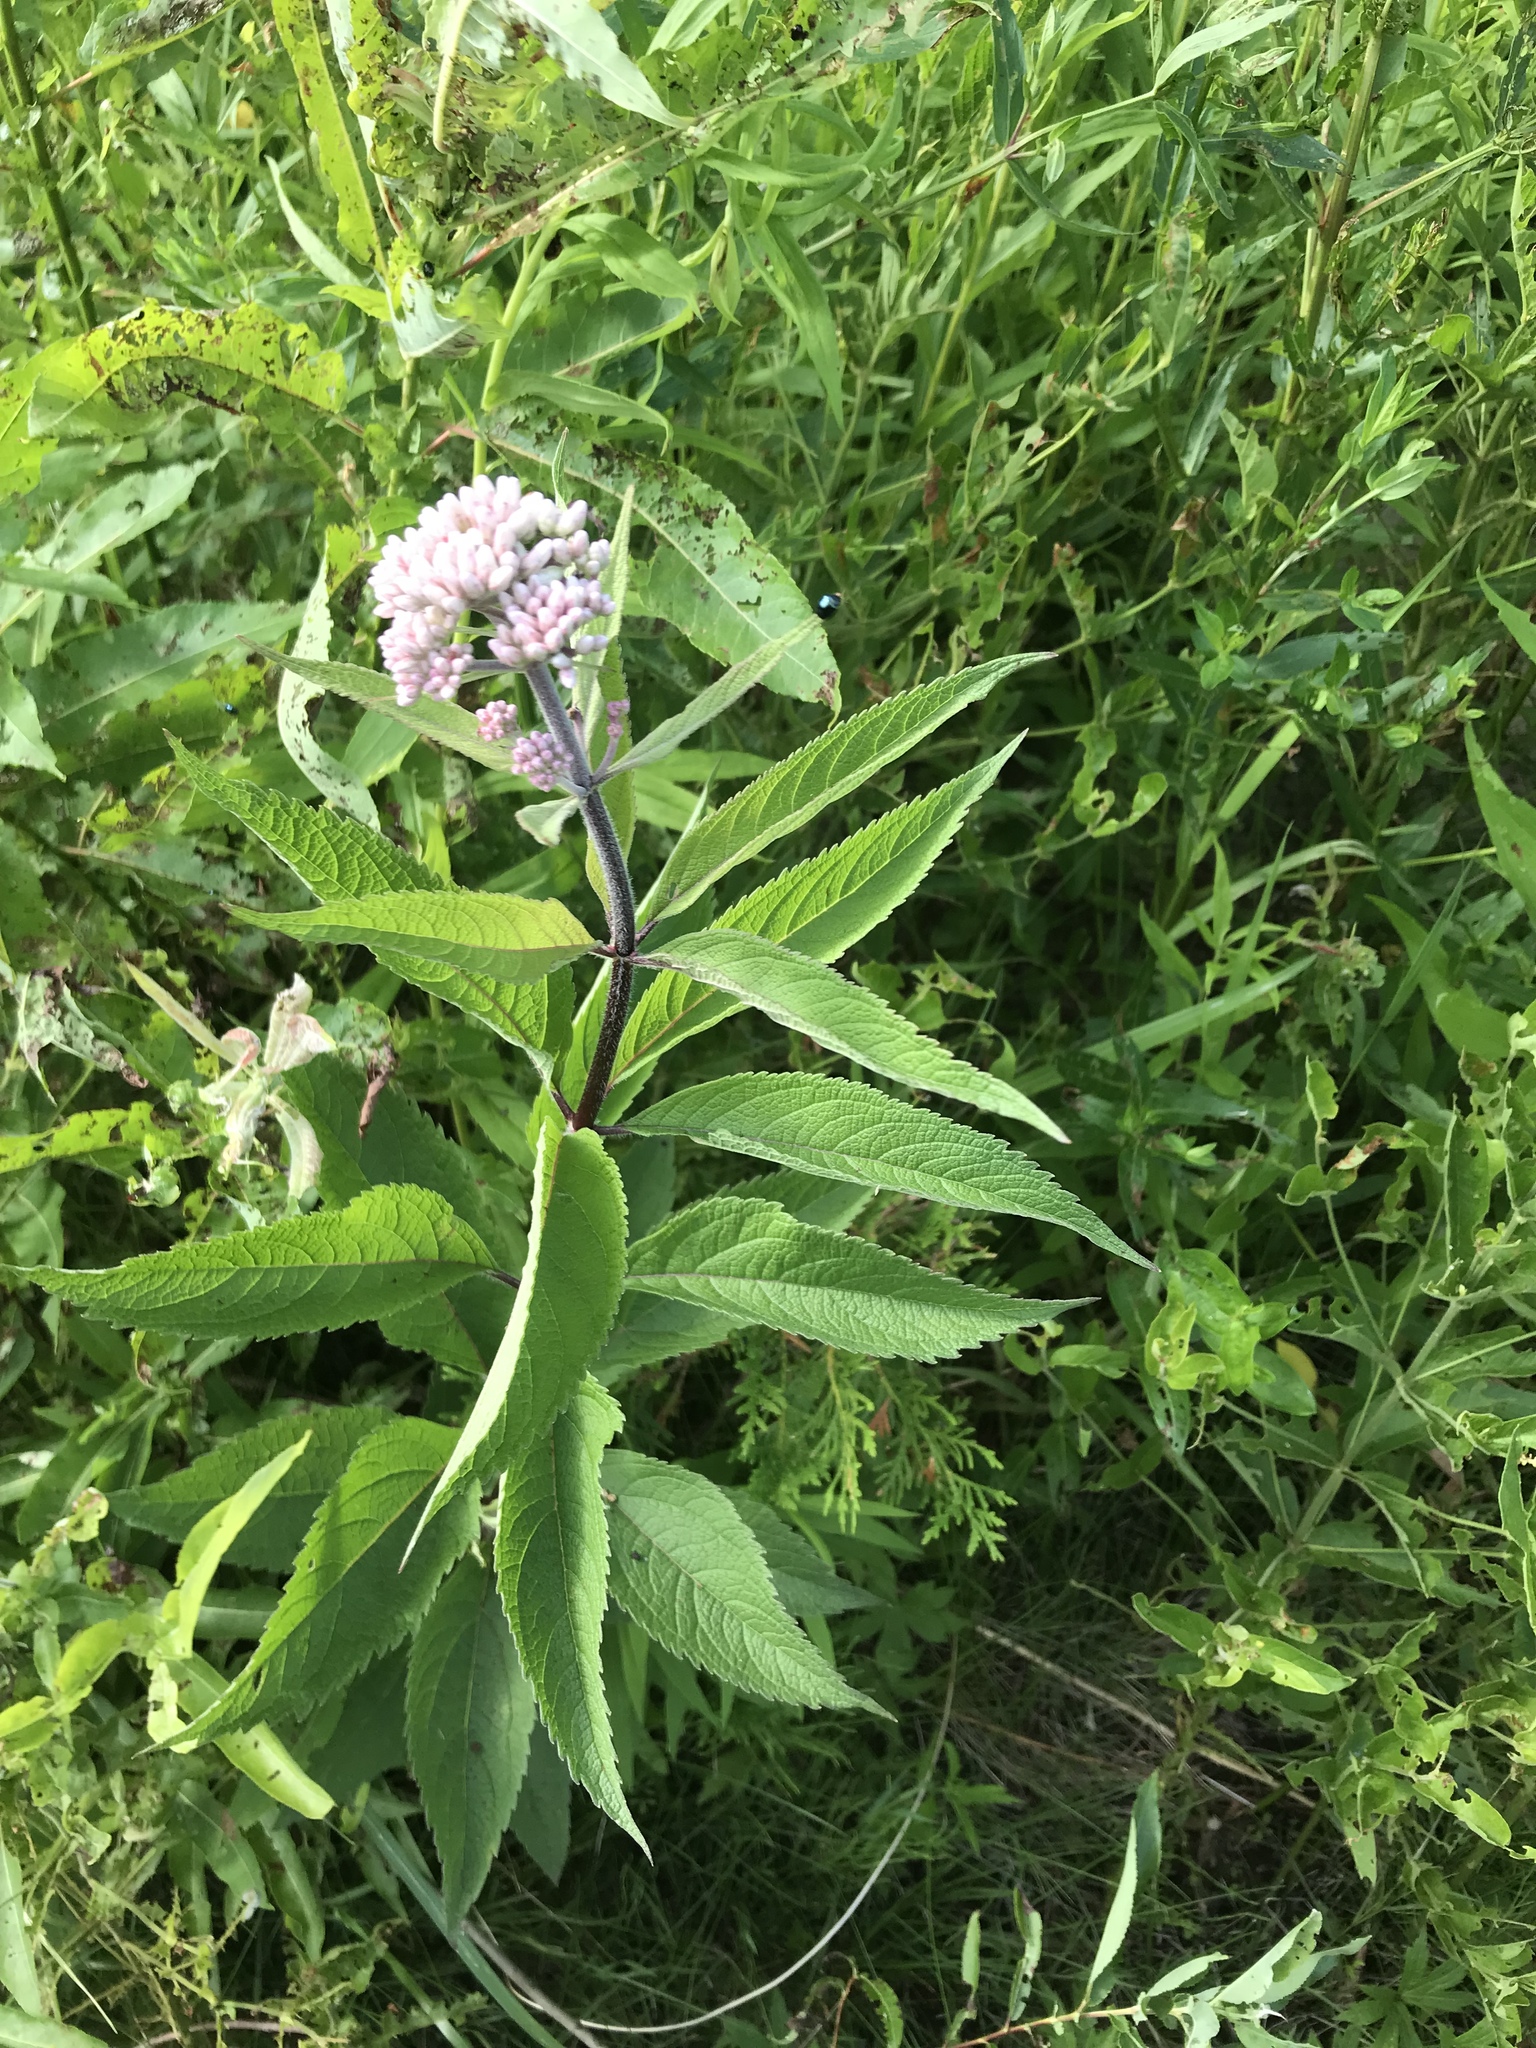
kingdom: Plantae
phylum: Tracheophyta
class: Magnoliopsida
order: Asterales
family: Asteraceae
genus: Eutrochium
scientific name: Eutrochium maculatum
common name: Spotted joe pye weed
